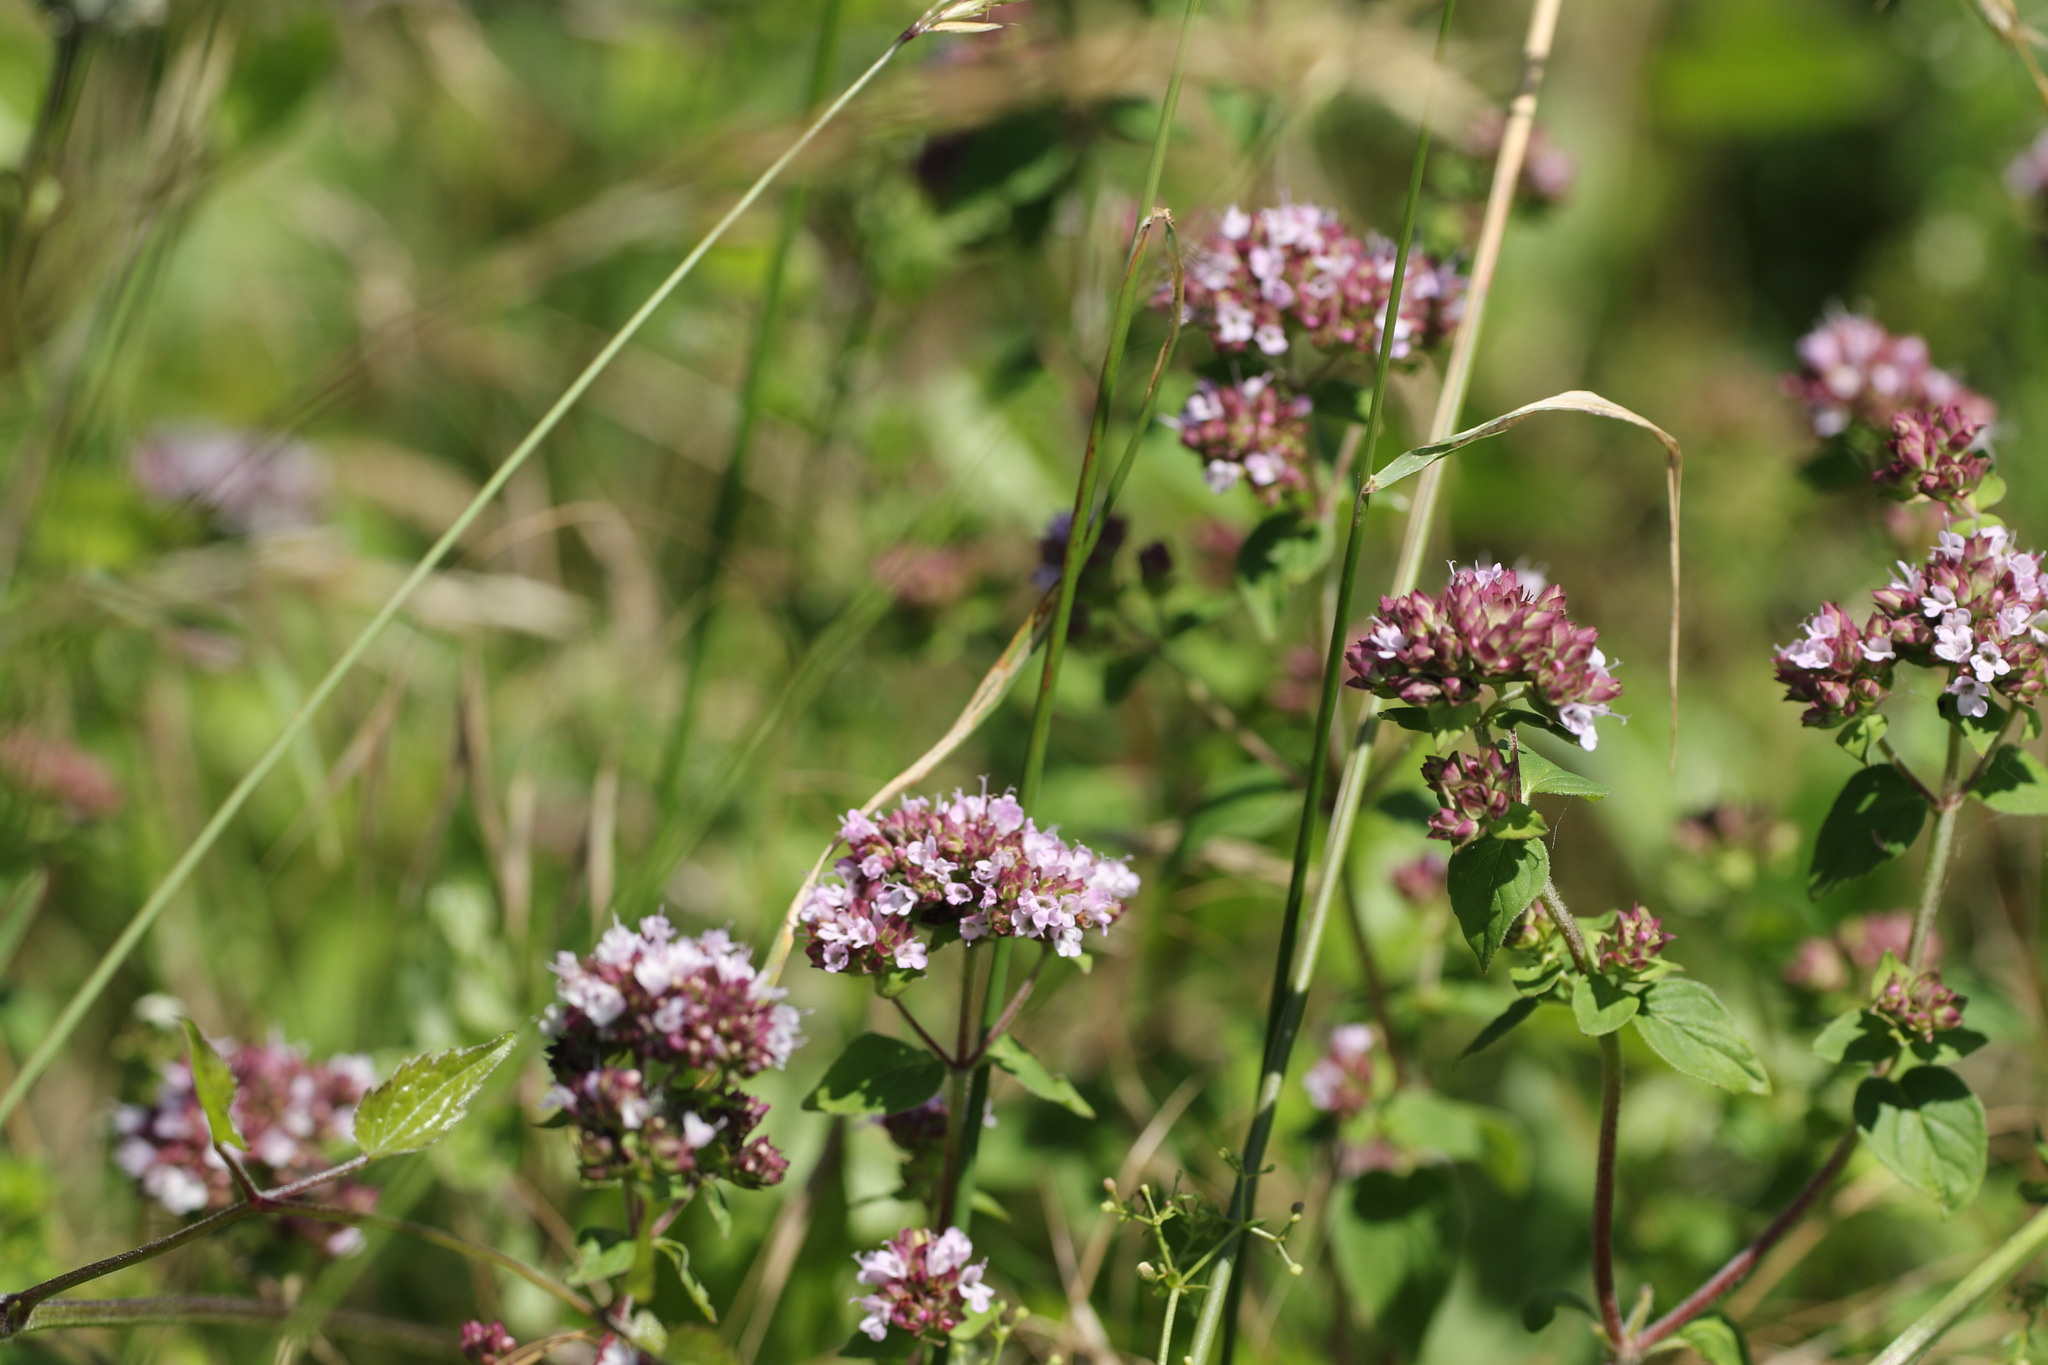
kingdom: Plantae
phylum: Tracheophyta
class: Magnoliopsida
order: Lamiales
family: Lamiaceae
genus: Origanum
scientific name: Origanum vulgare
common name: Wild marjoram
